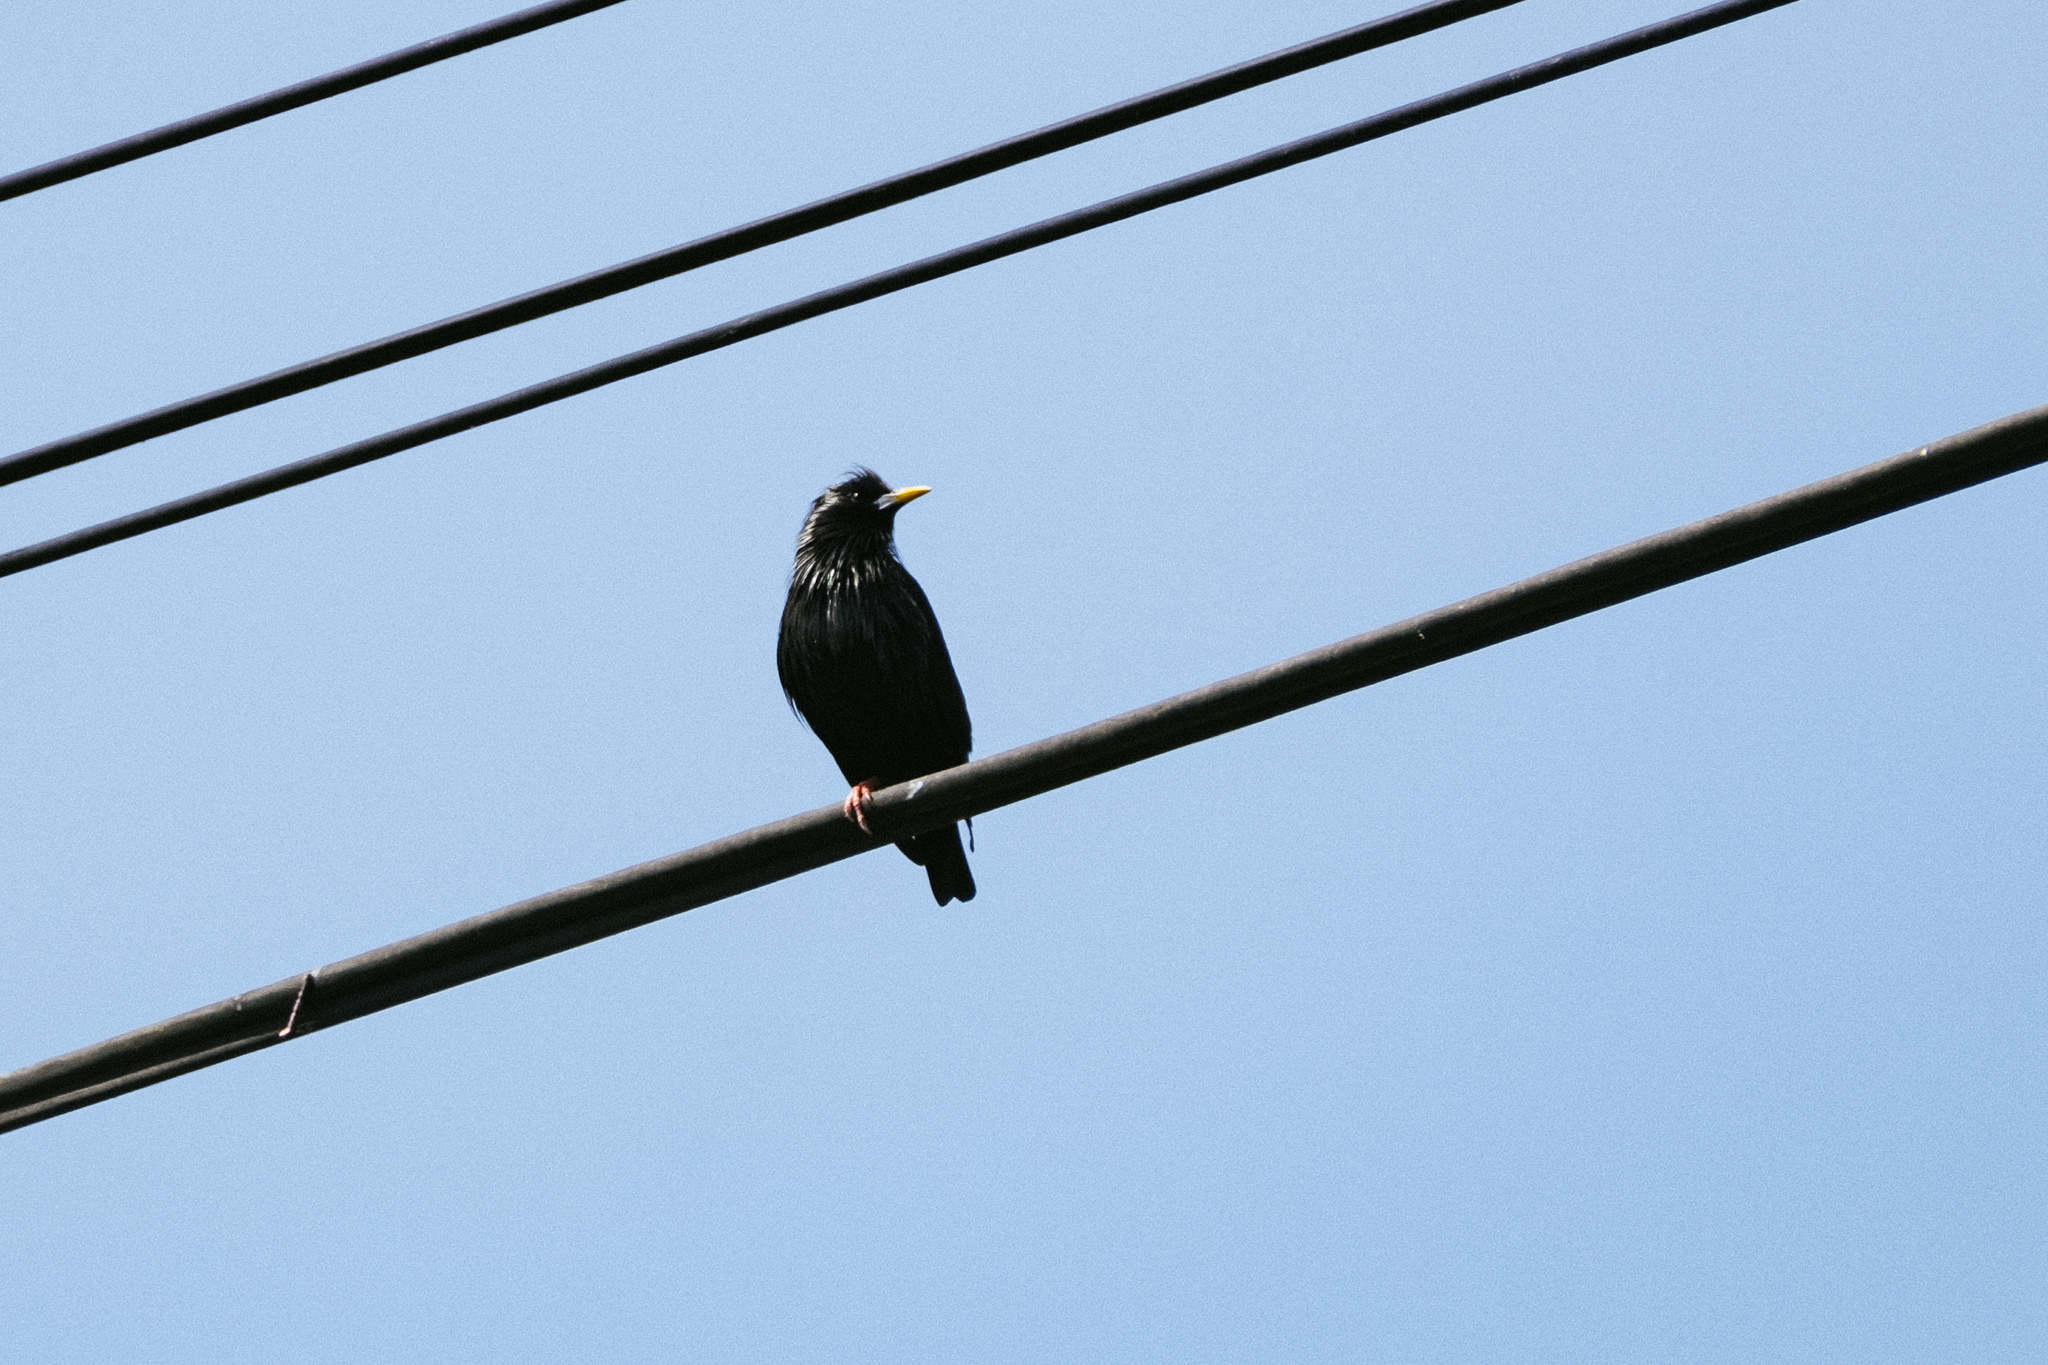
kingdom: Animalia
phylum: Chordata
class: Aves
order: Passeriformes
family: Sturnidae
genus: Sturnus
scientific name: Sturnus unicolor
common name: Spotless starling
